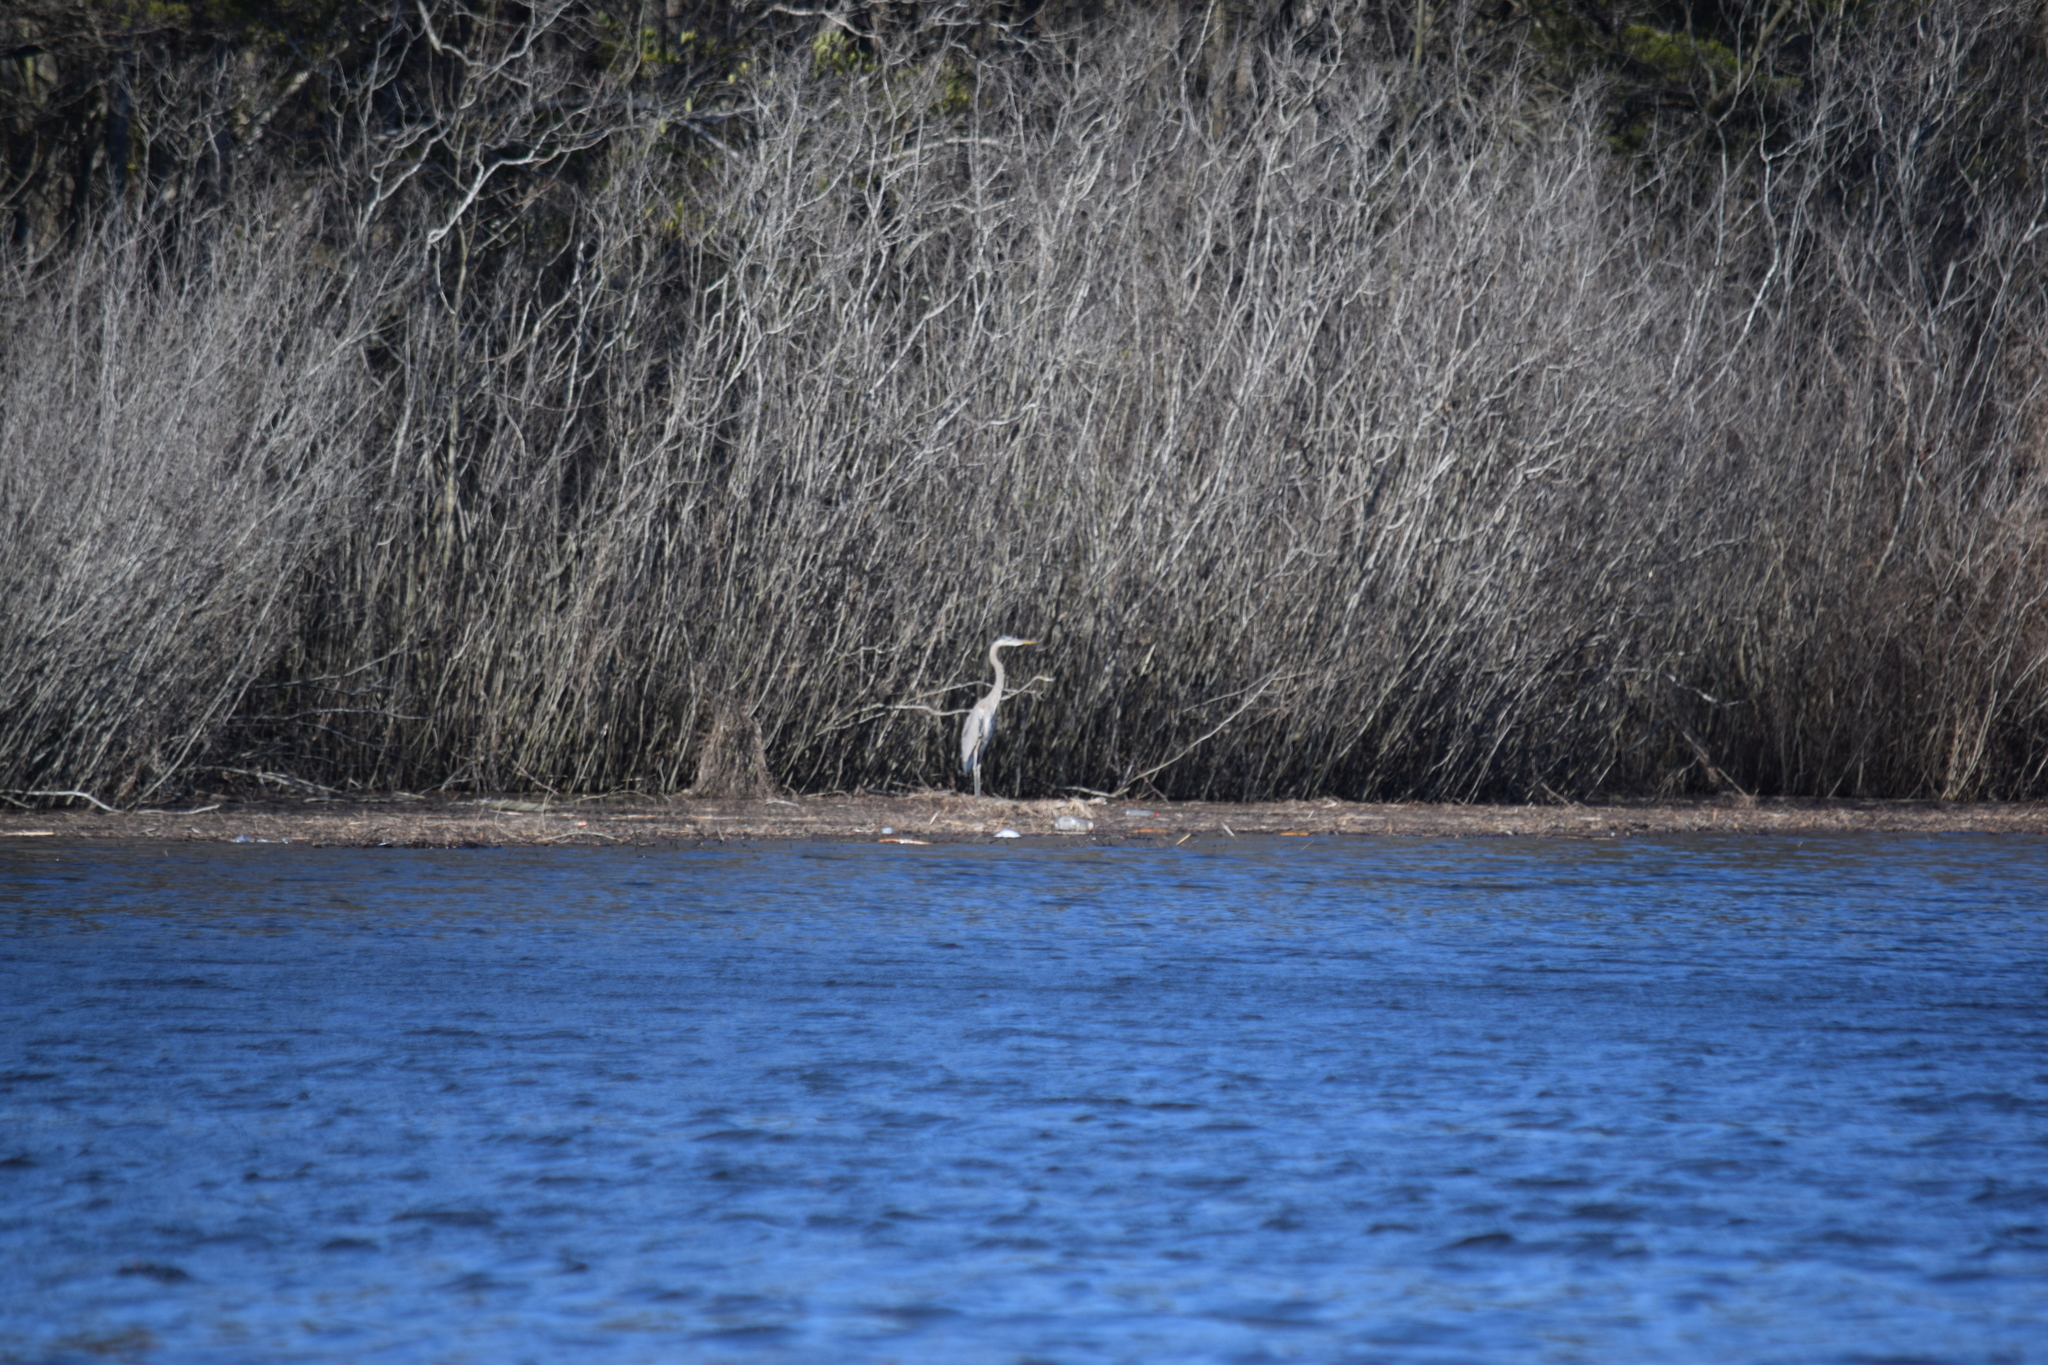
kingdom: Animalia
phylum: Chordata
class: Aves
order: Pelecaniformes
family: Ardeidae
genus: Ardea
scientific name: Ardea herodias
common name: Great blue heron
